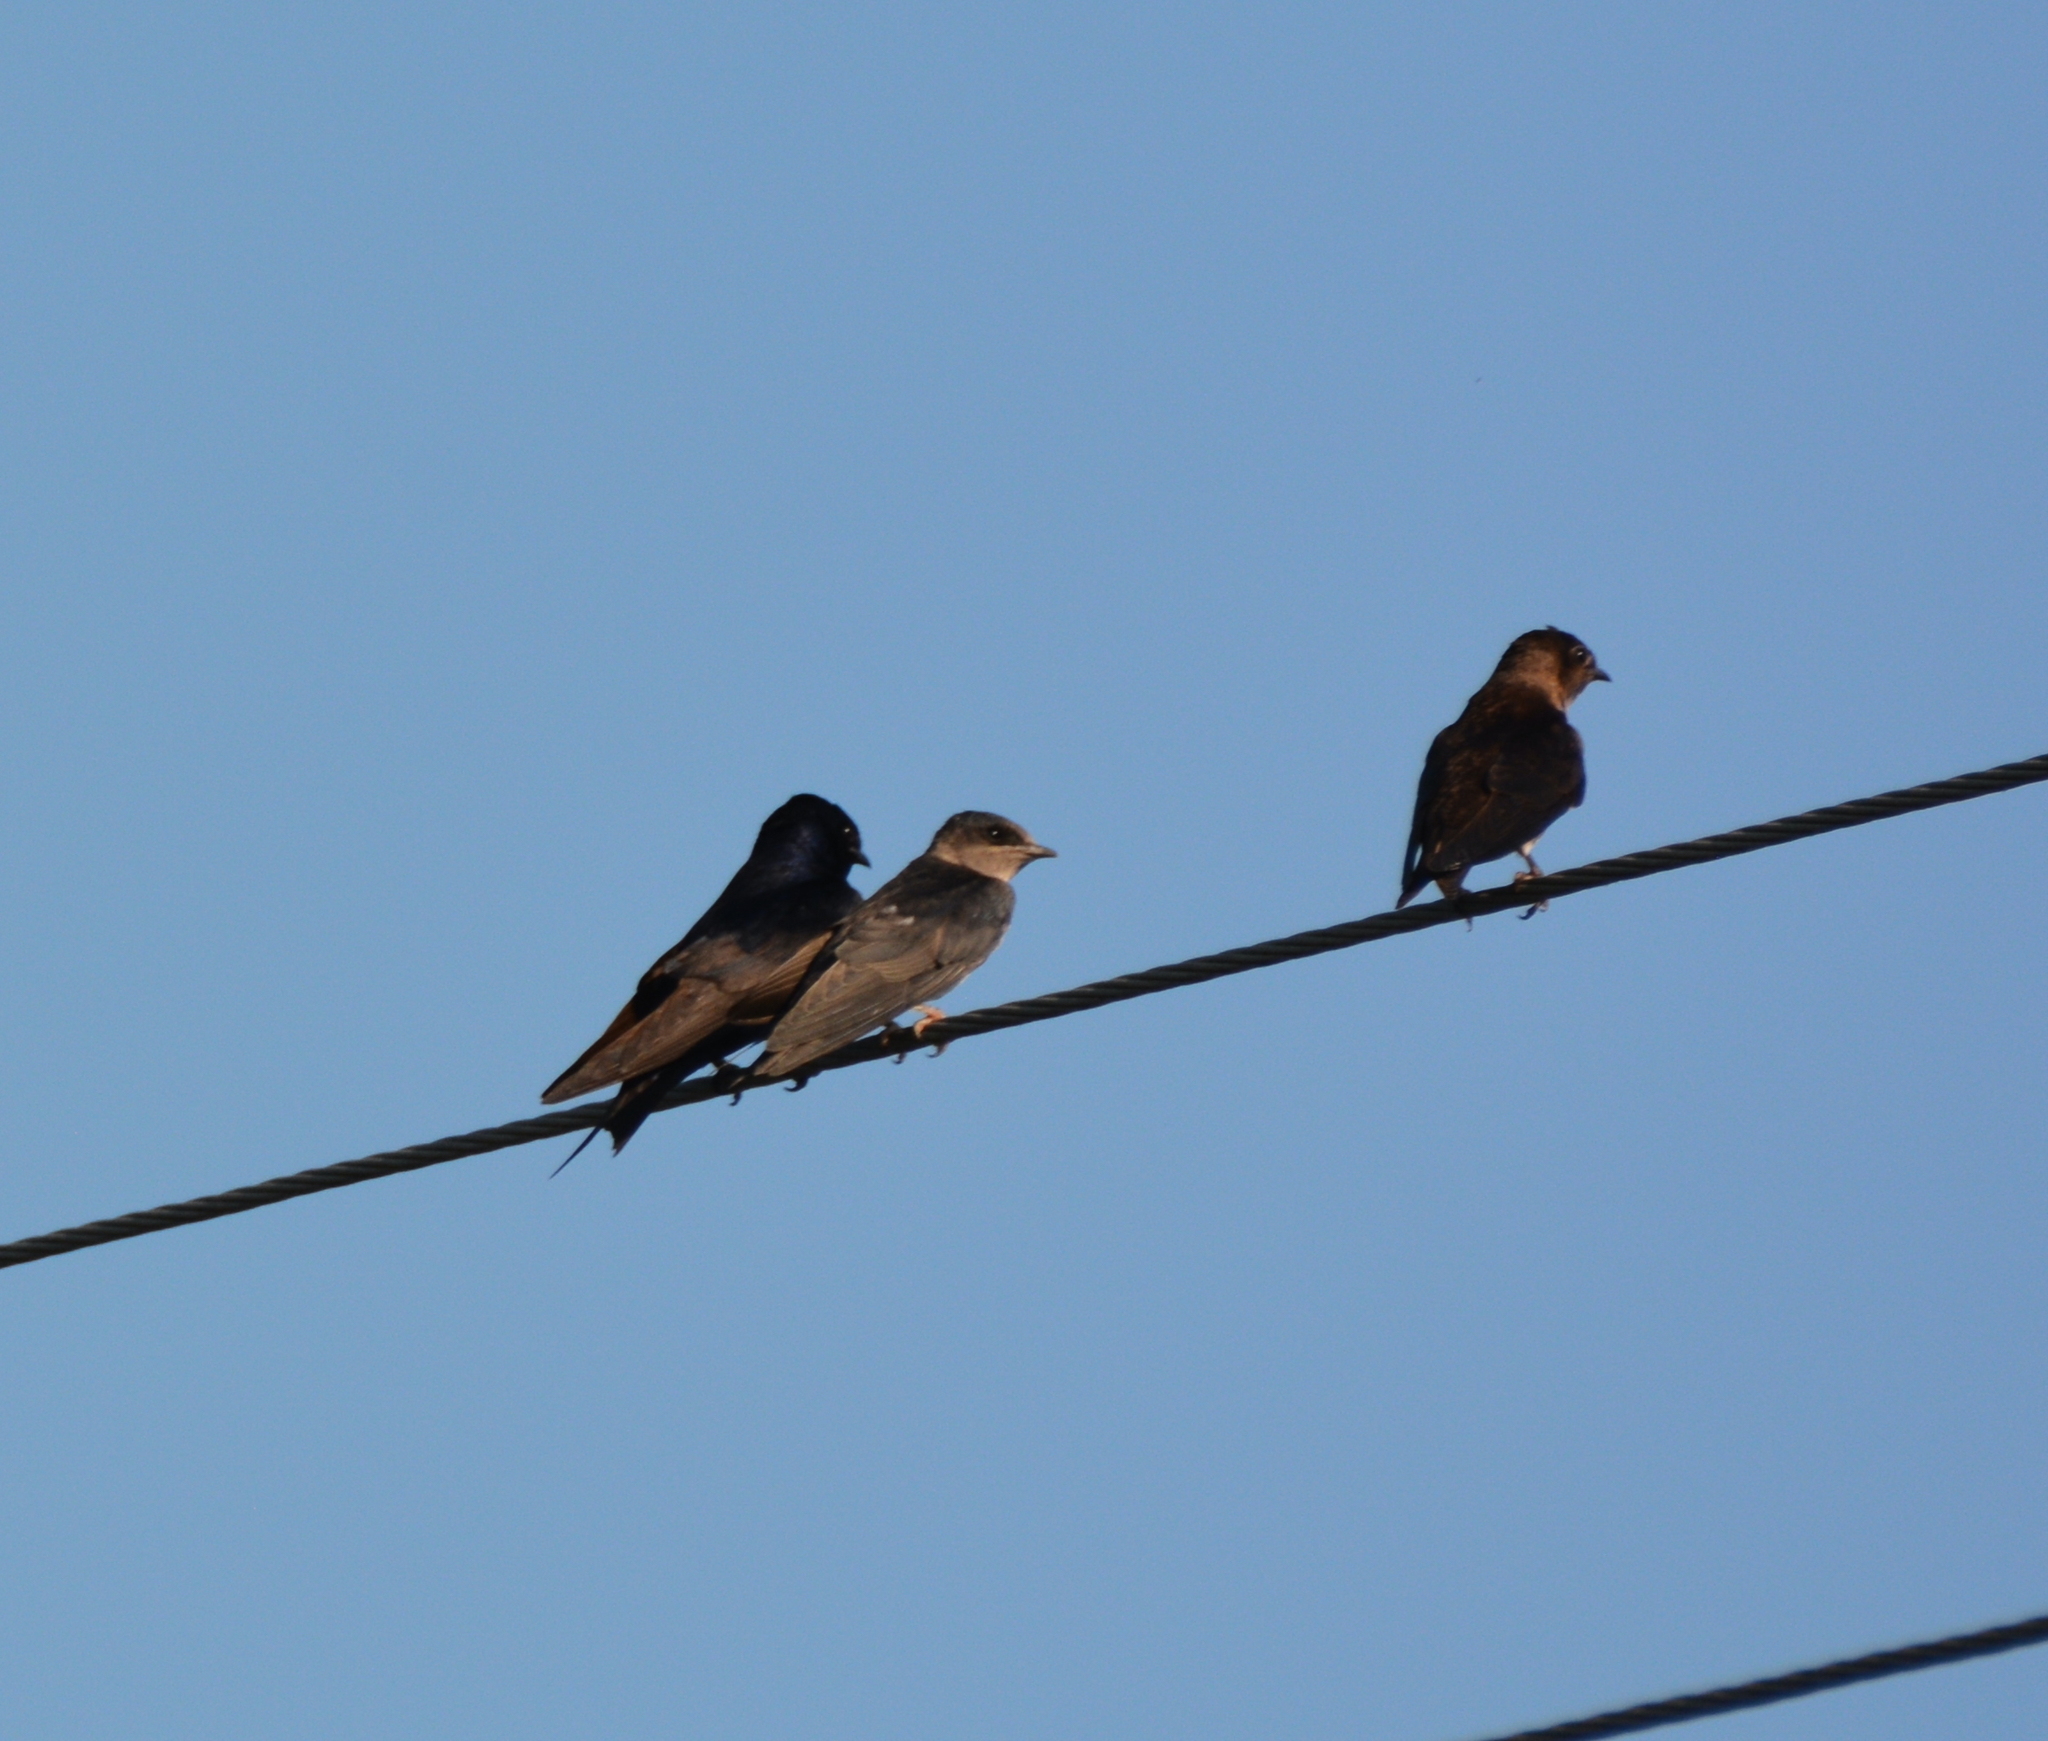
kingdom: Animalia
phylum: Chordata
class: Aves
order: Passeriformes
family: Hirundinidae
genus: Progne
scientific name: Progne subis
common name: Purple martin
